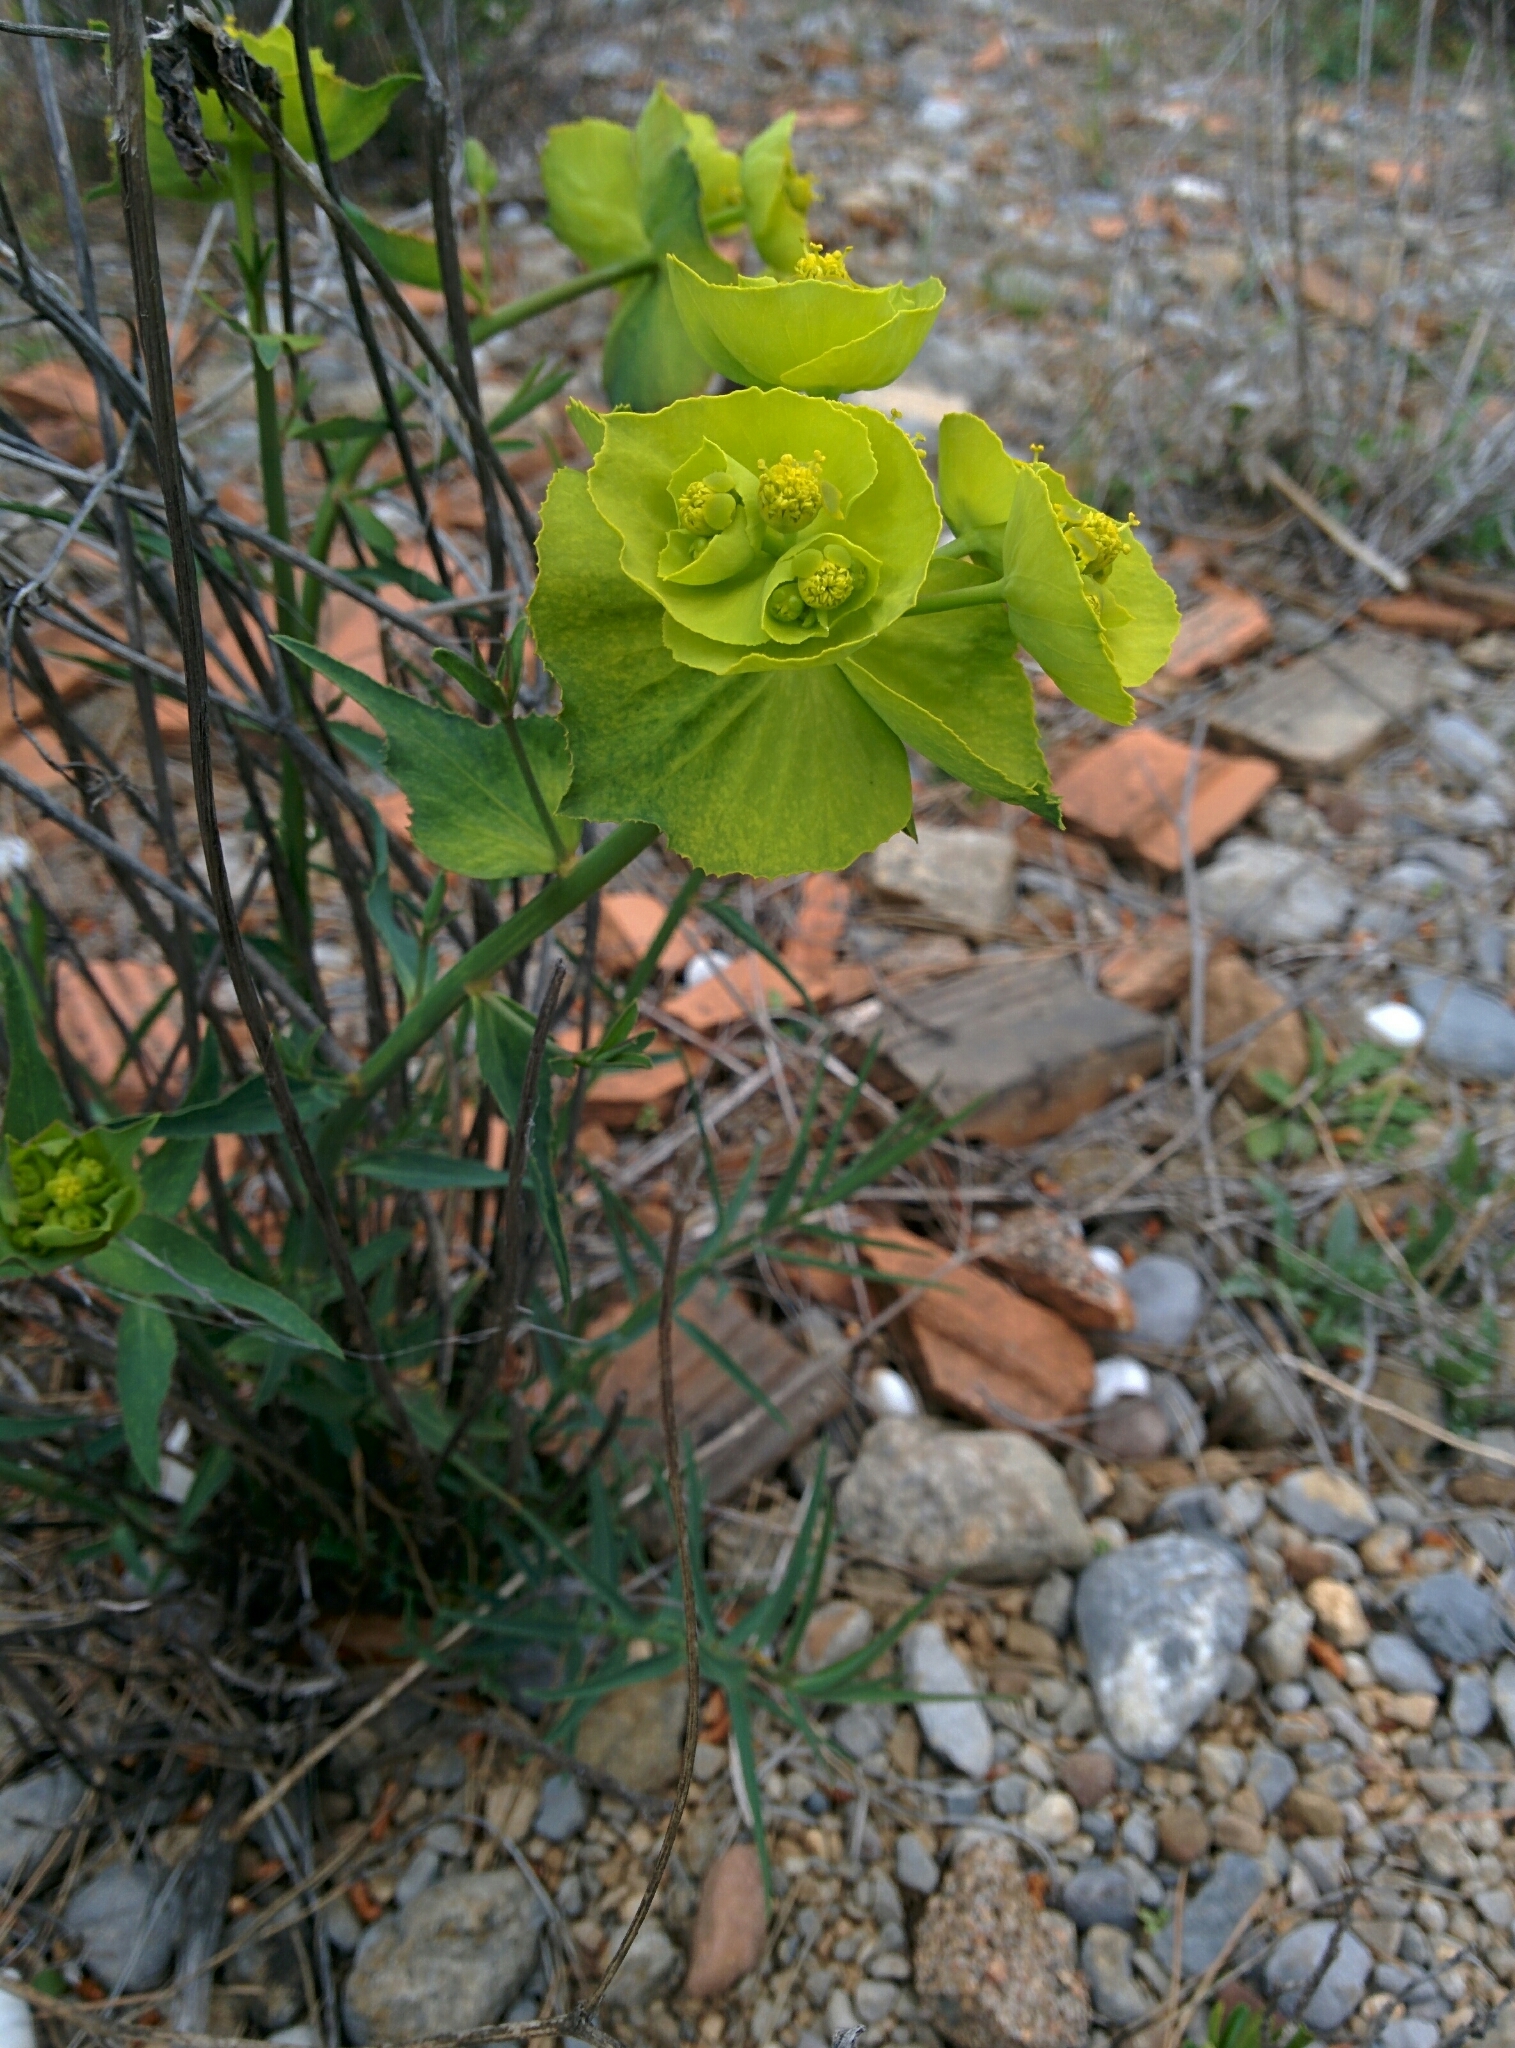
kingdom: Plantae
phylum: Tracheophyta
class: Magnoliopsida
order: Malpighiales
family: Euphorbiaceae
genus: Euphorbia
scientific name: Euphorbia serrata
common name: Serrate spurge
